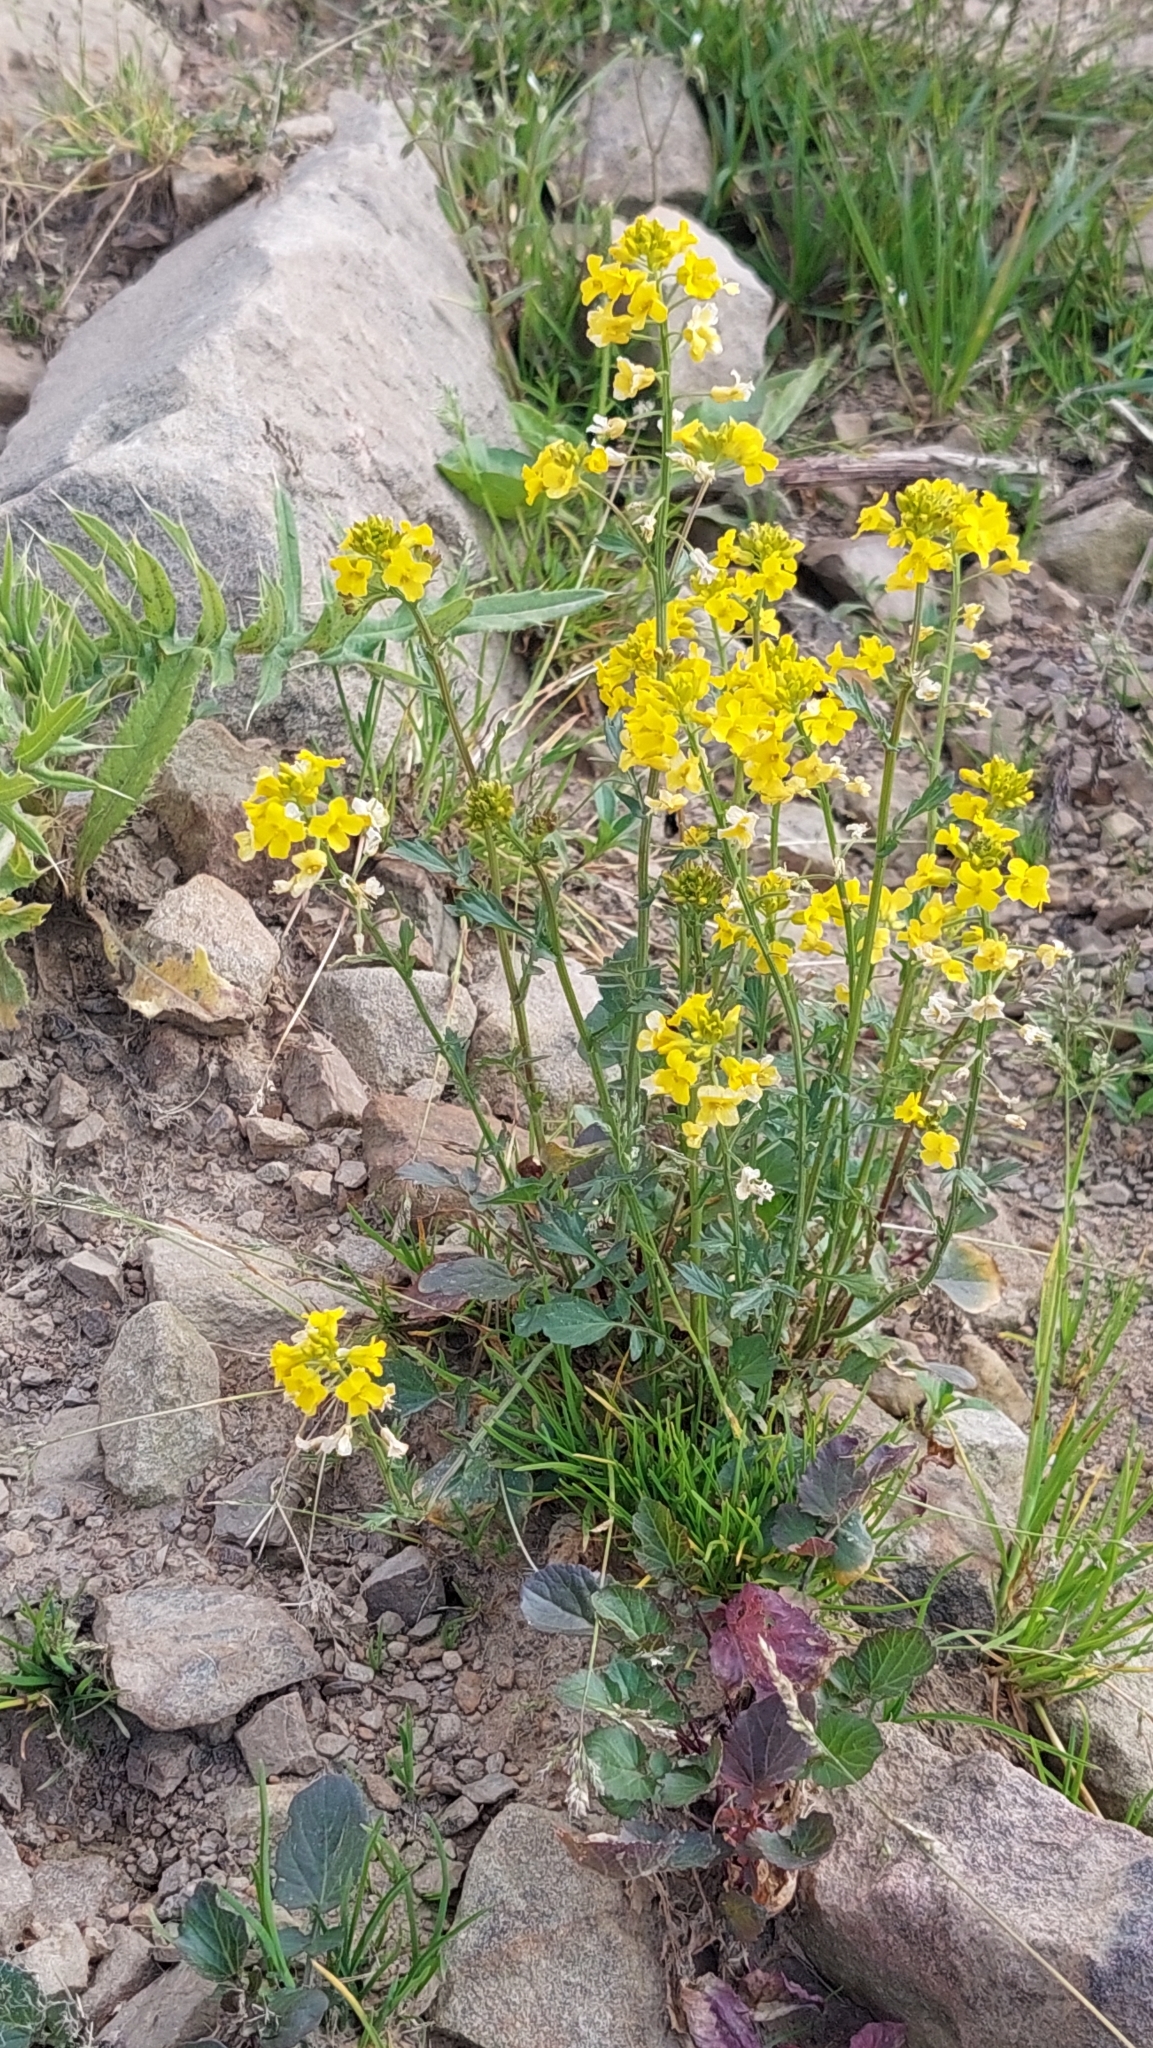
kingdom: Plantae
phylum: Tracheophyta
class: Magnoliopsida
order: Brassicales
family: Brassicaceae
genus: Barbarea
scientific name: Barbarea vulgaris
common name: Cressy-greens
